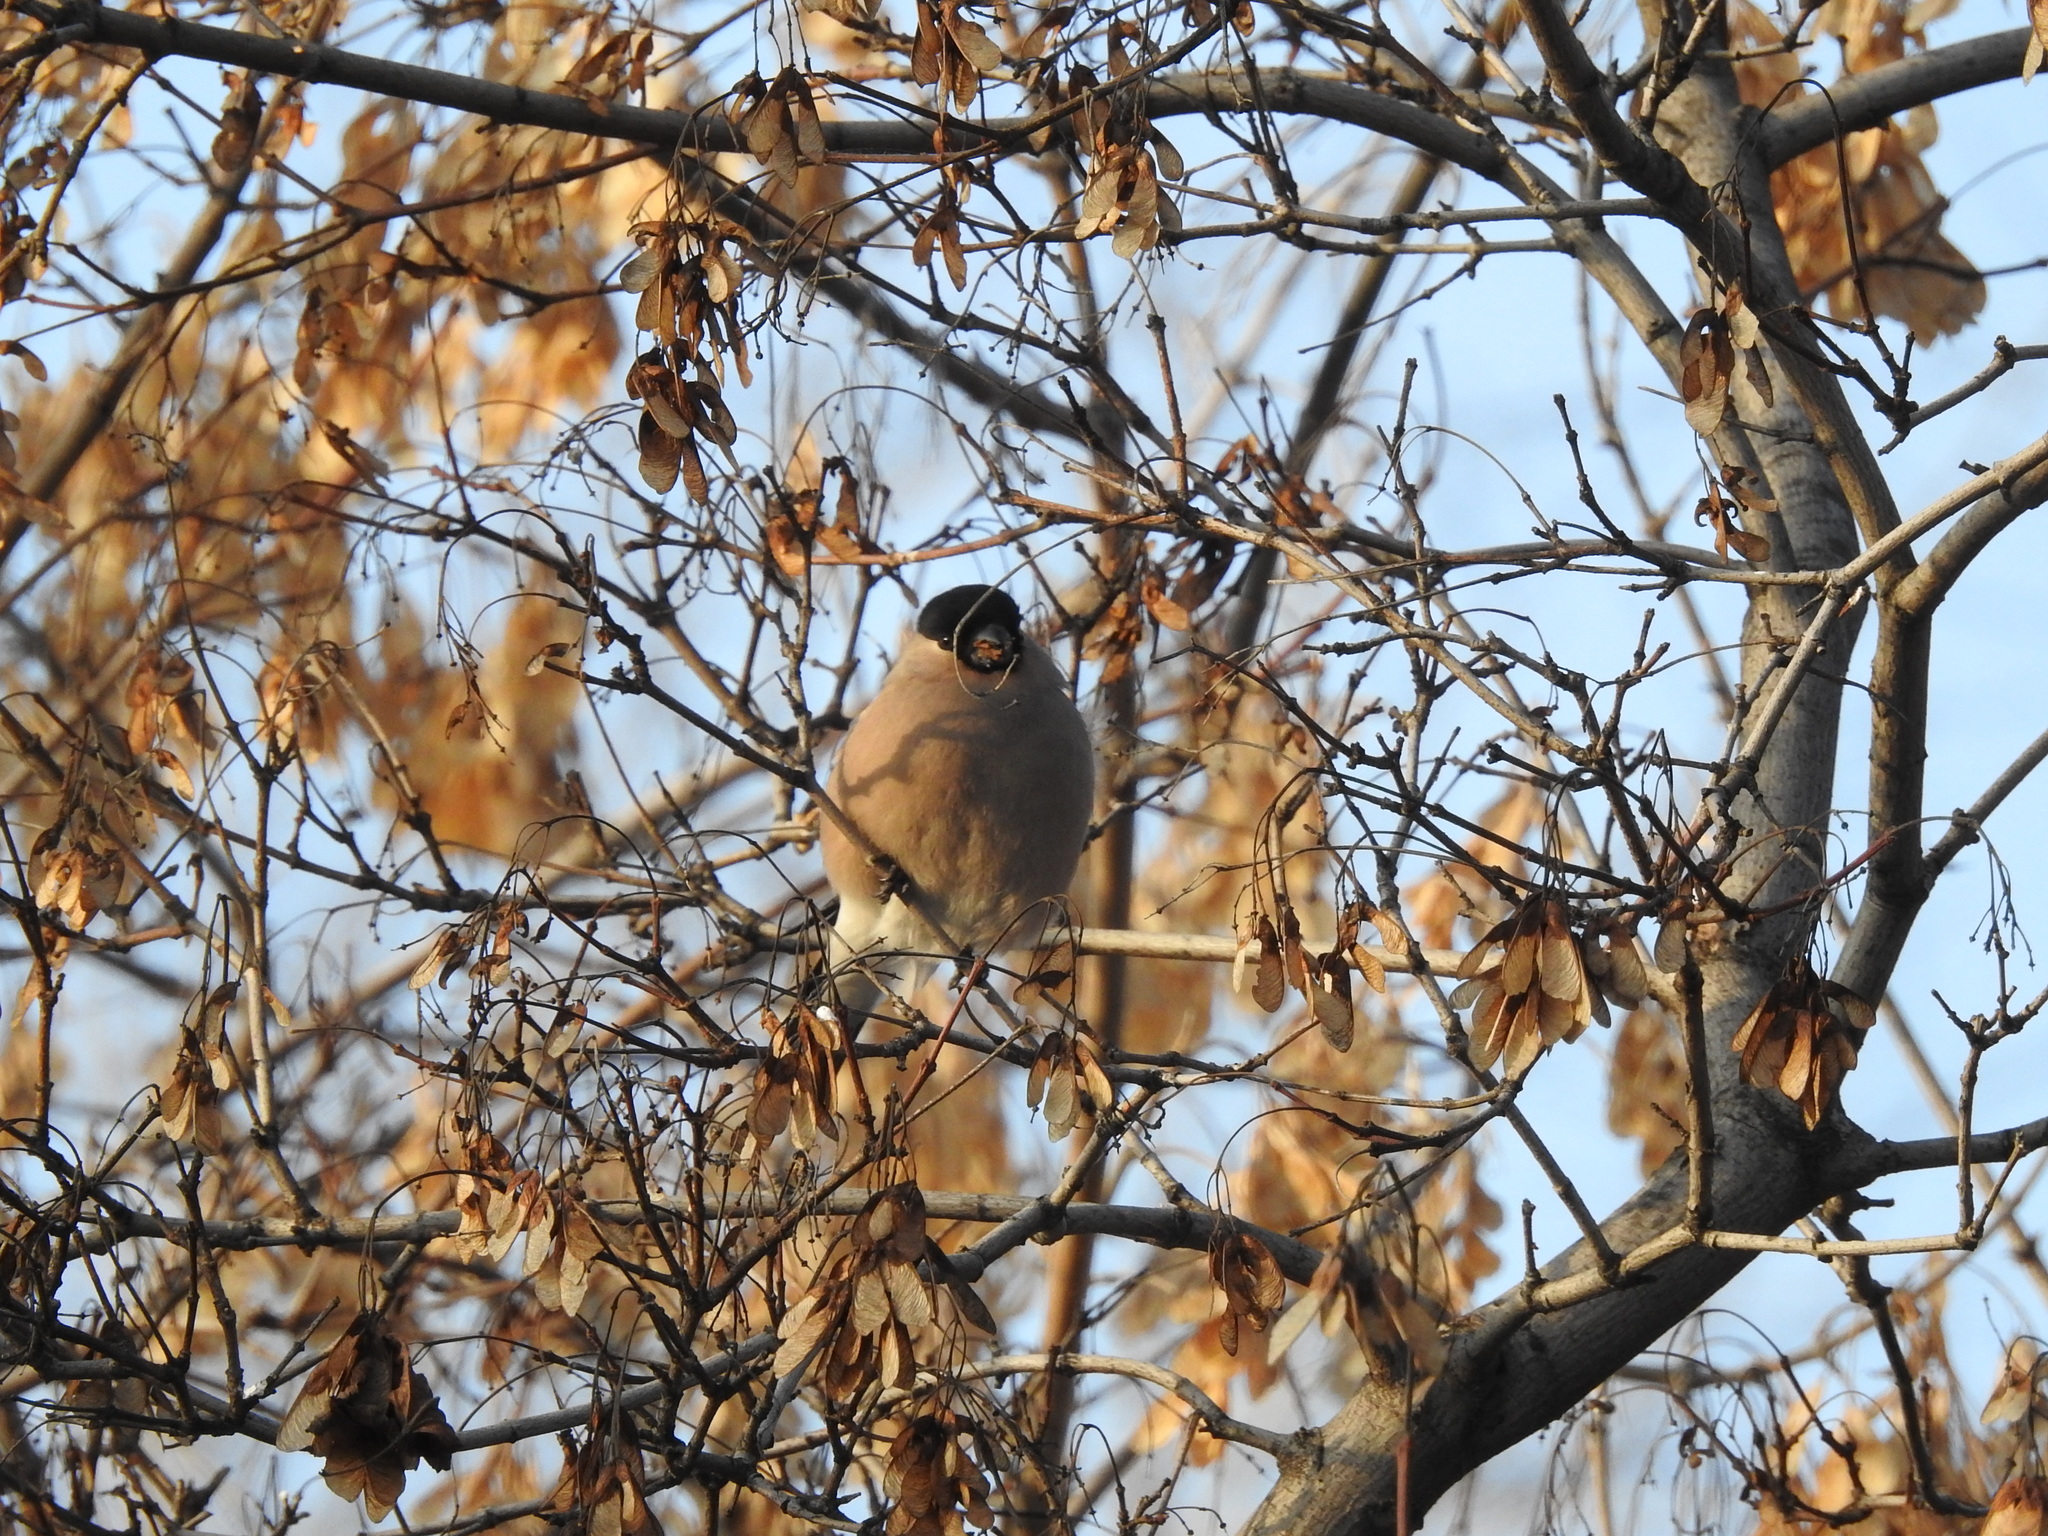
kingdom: Animalia
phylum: Chordata
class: Aves
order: Passeriformes
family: Fringillidae
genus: Pyrrhula
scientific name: Pyrrhula pyrrhula
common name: Eurasian bullfinch
